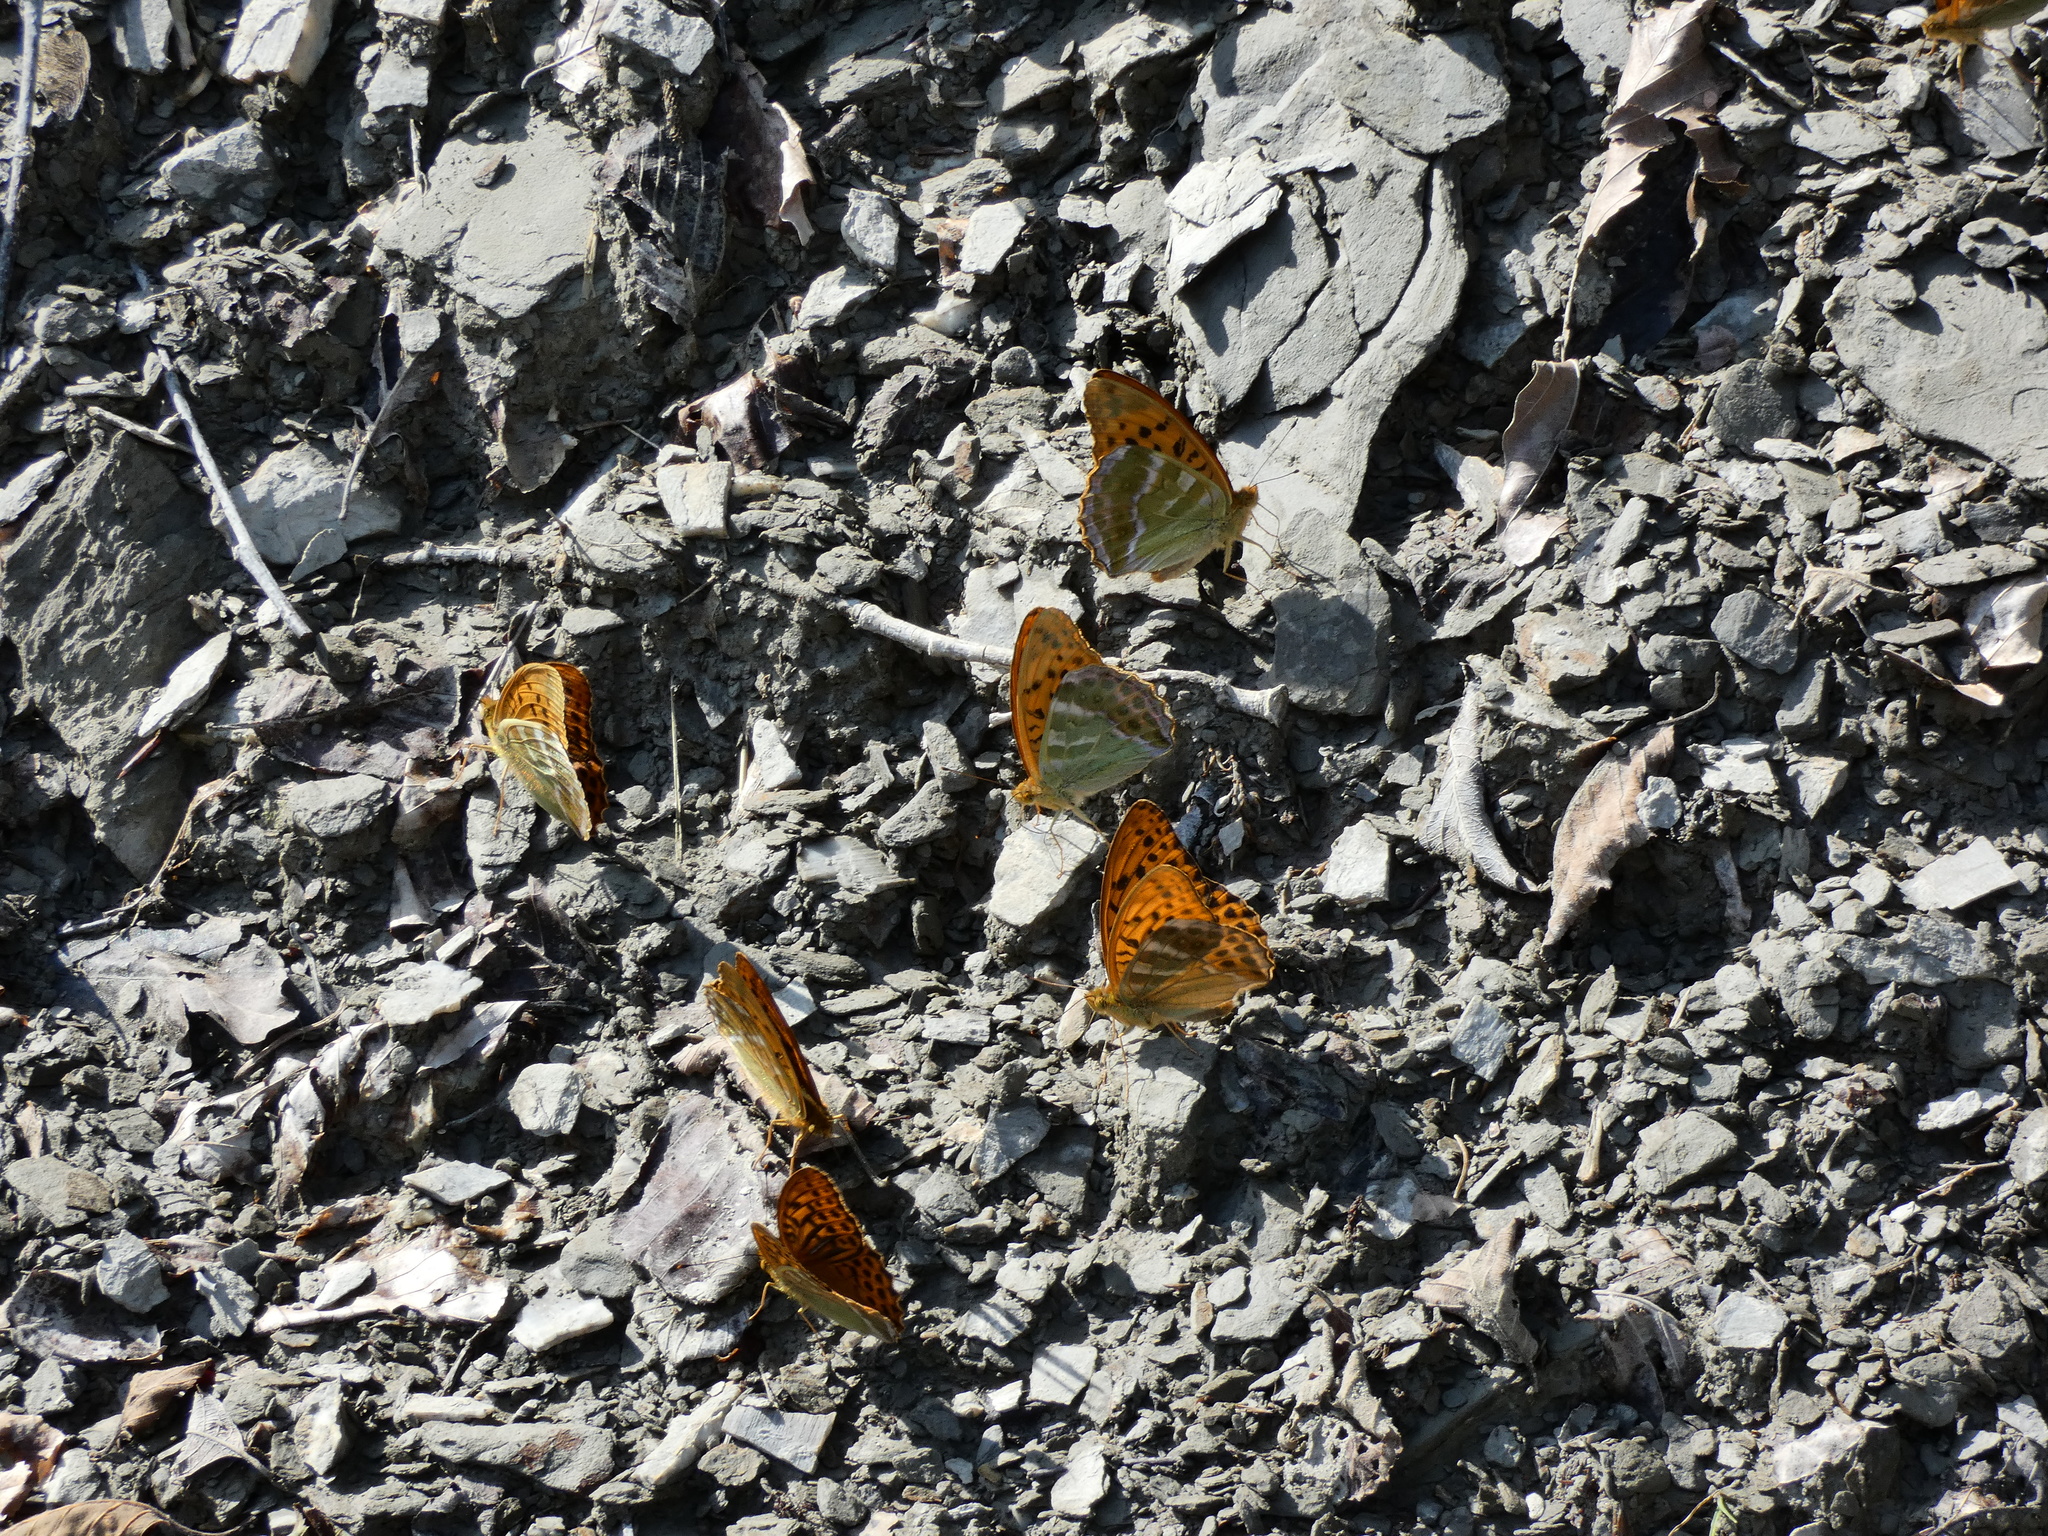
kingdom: Animalia
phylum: Arthropoda
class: Insecta
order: Lepidoptera
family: Nymphalidae
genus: Argynnis
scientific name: Argynnis paphia
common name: Silver-washed fritillary
